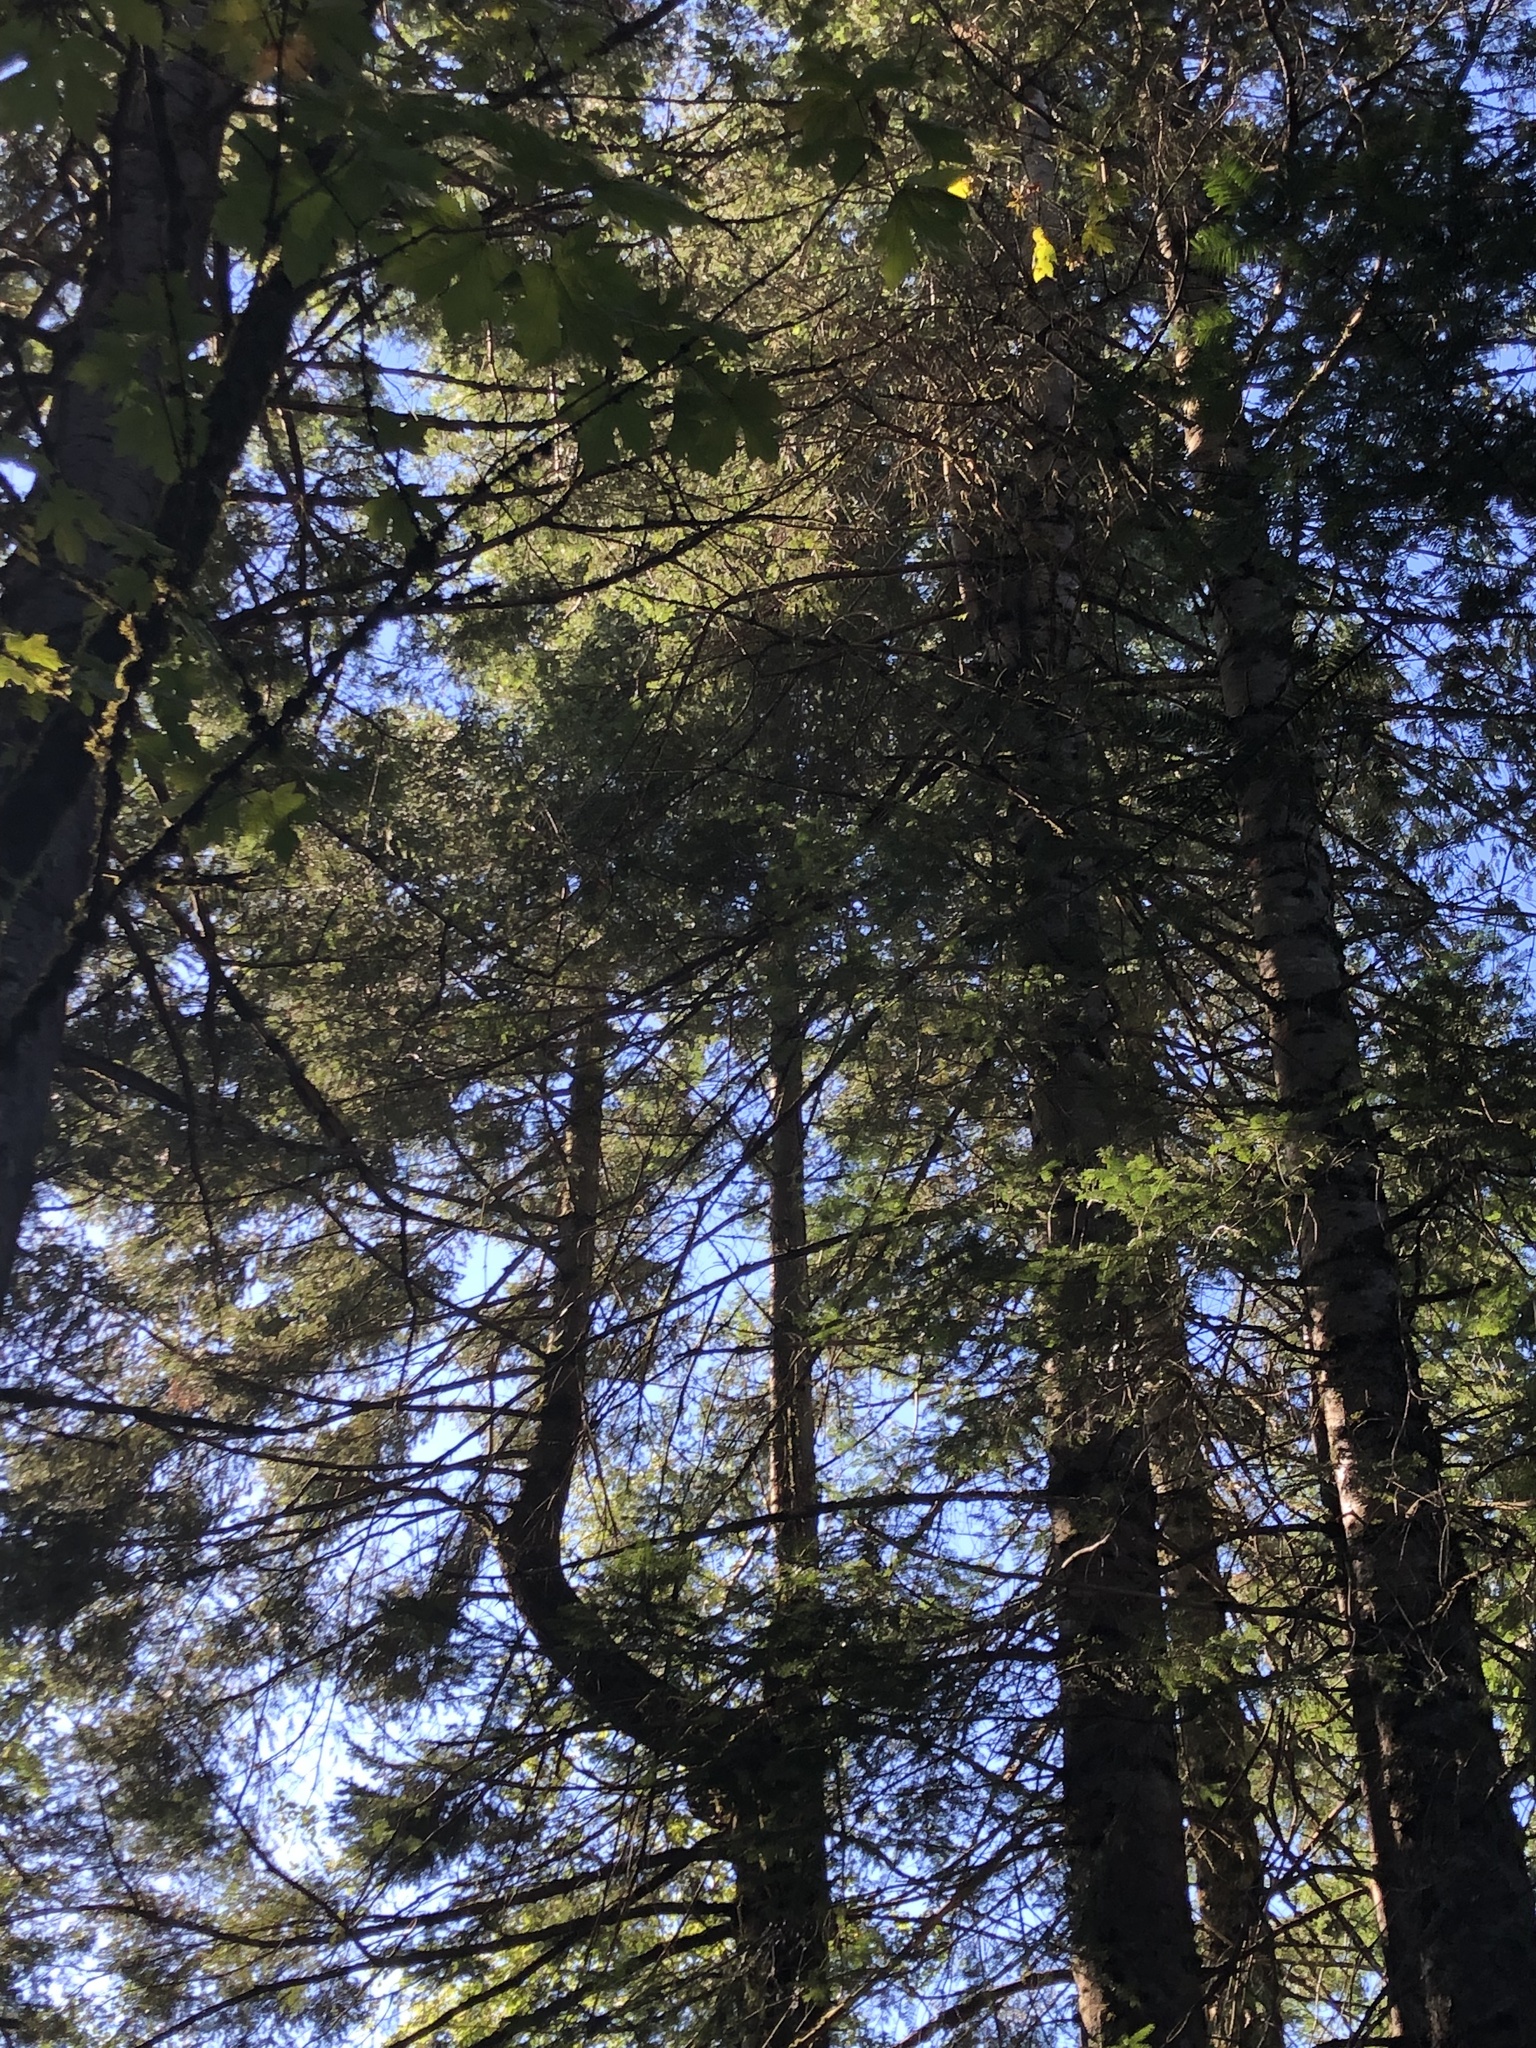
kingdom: Plantae
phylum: Tracheophyta
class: Pinopsida
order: Pinales
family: Pinaceae
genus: Abies
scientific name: Abies grandis
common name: Giant fir
